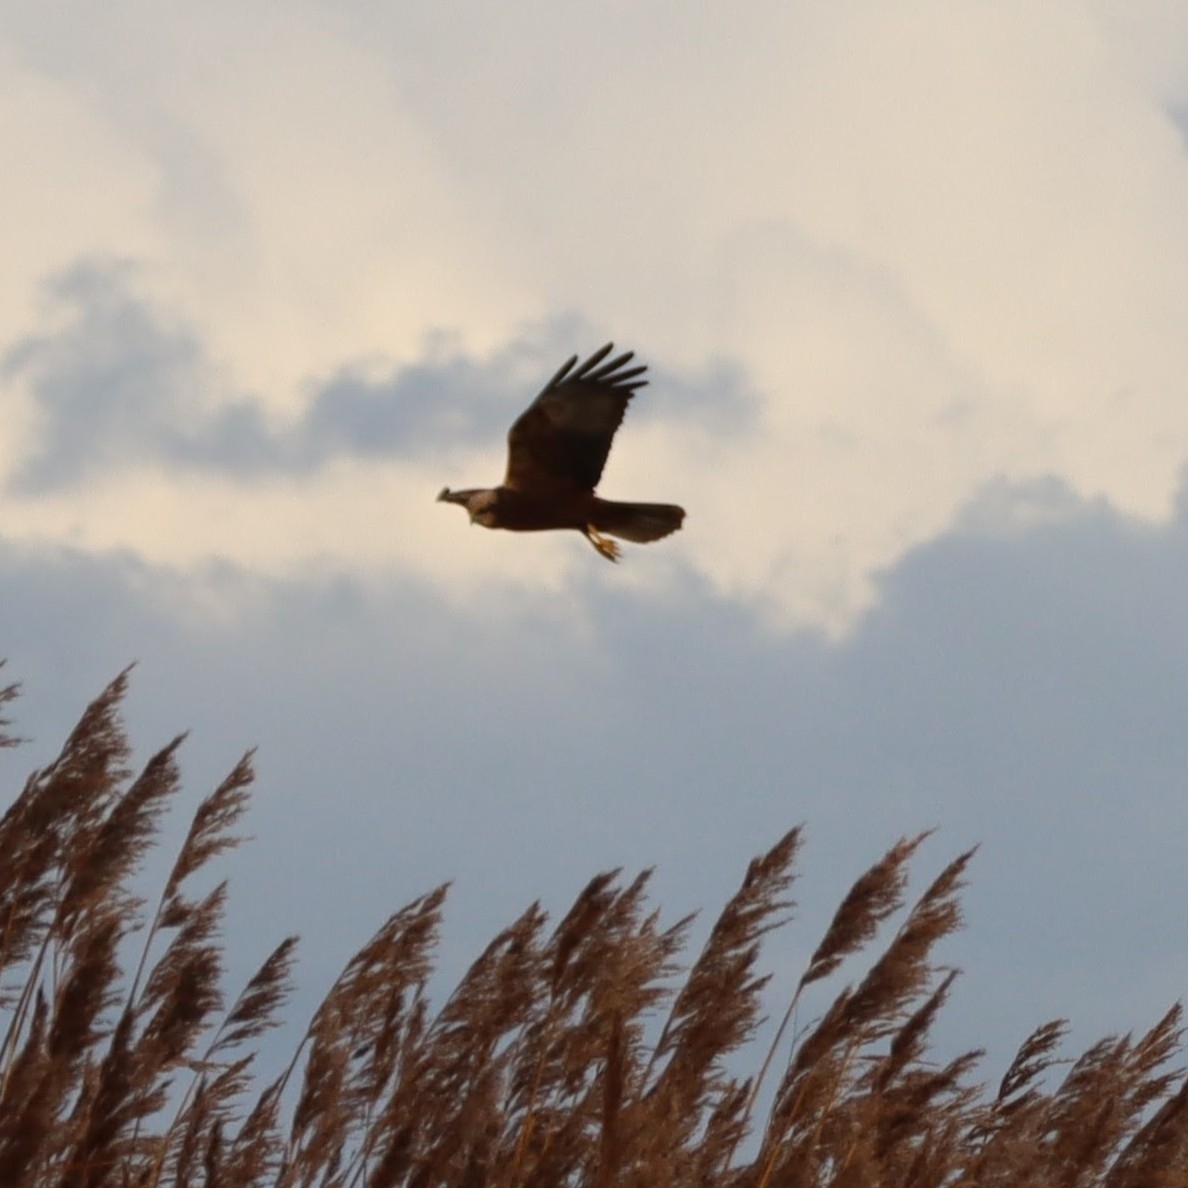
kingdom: Animalia
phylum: Chordata
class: Aves
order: Accipitriformes
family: Accipitridae
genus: Circus
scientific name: Circus aeruginosus
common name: Western marsh harrier
